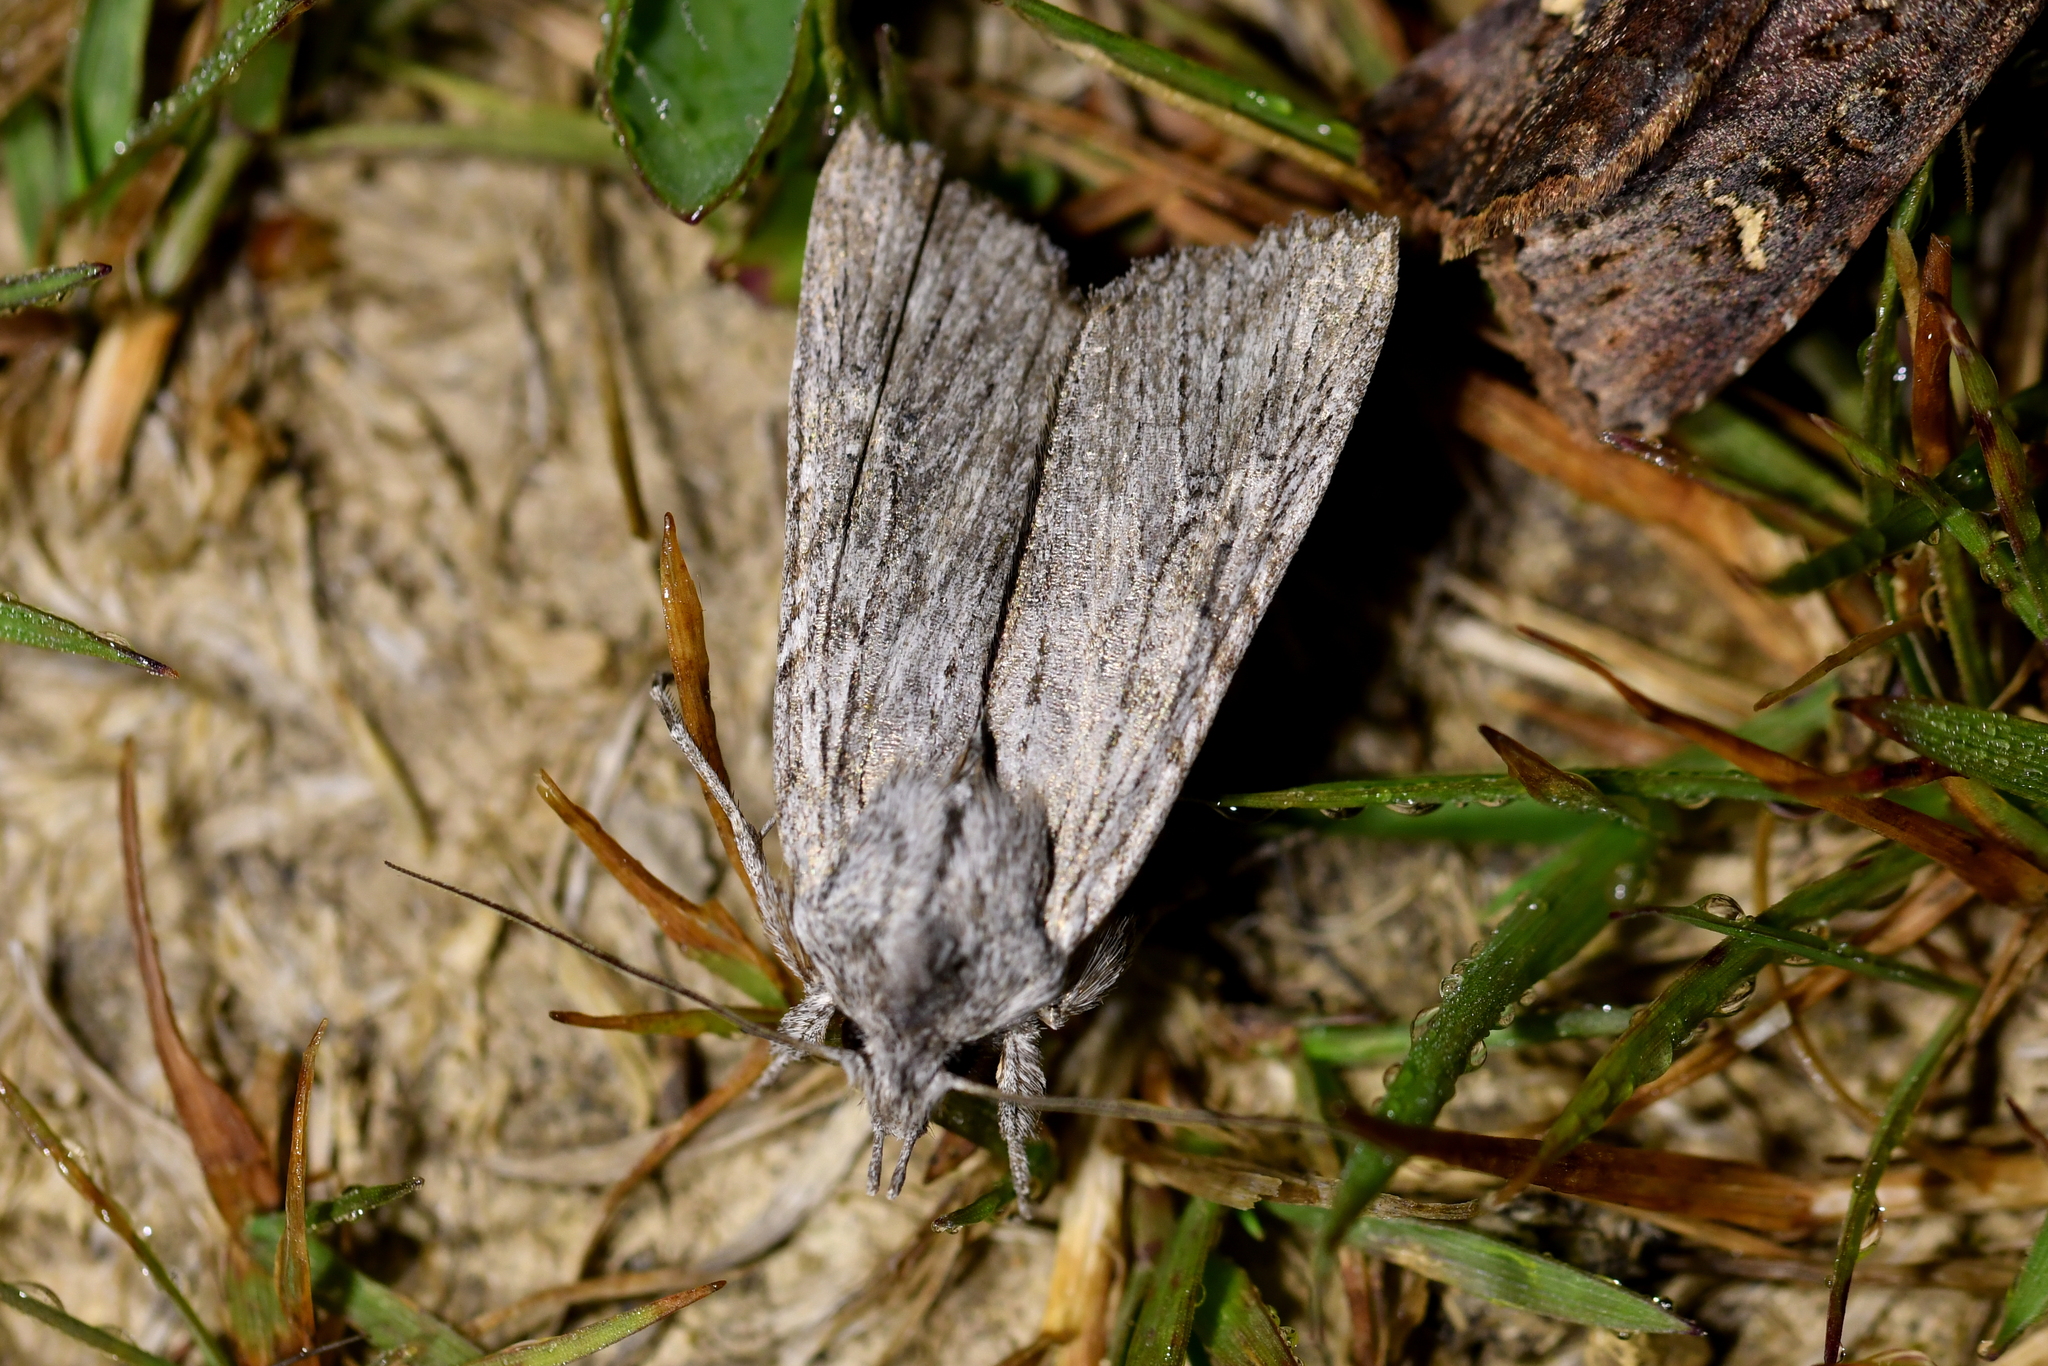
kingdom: Animalia
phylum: Arthropoda
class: Insecta
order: Lepidoptera
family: Noctuidae
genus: Physetica
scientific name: Physetica phricias
